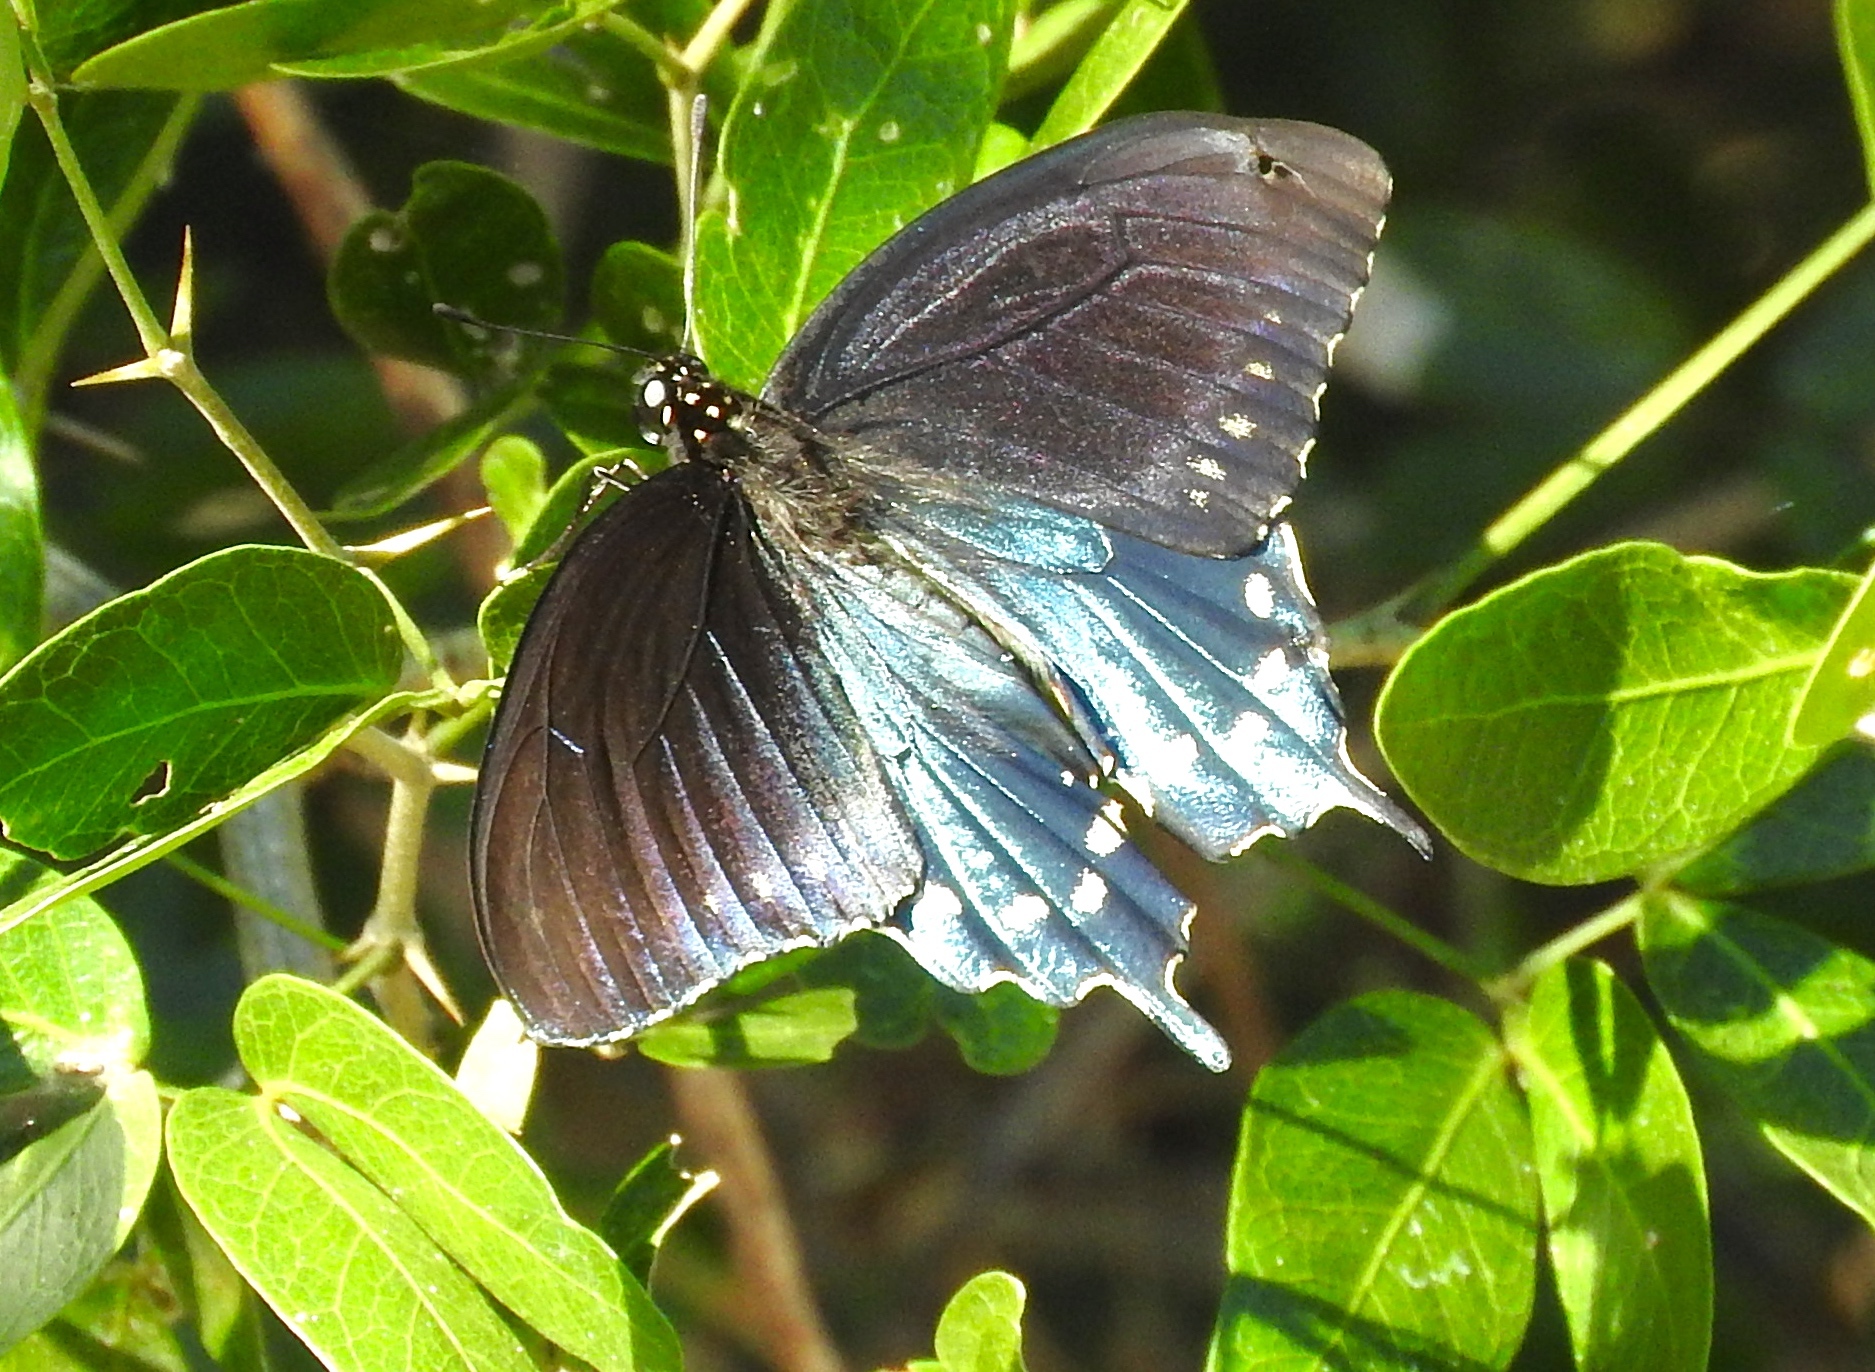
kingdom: Animalia
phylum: Arthropoda
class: Insecta
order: Lepidoptera
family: Papilionidae
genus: Battus
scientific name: Battus philenor
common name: Pipevine swallowtail
